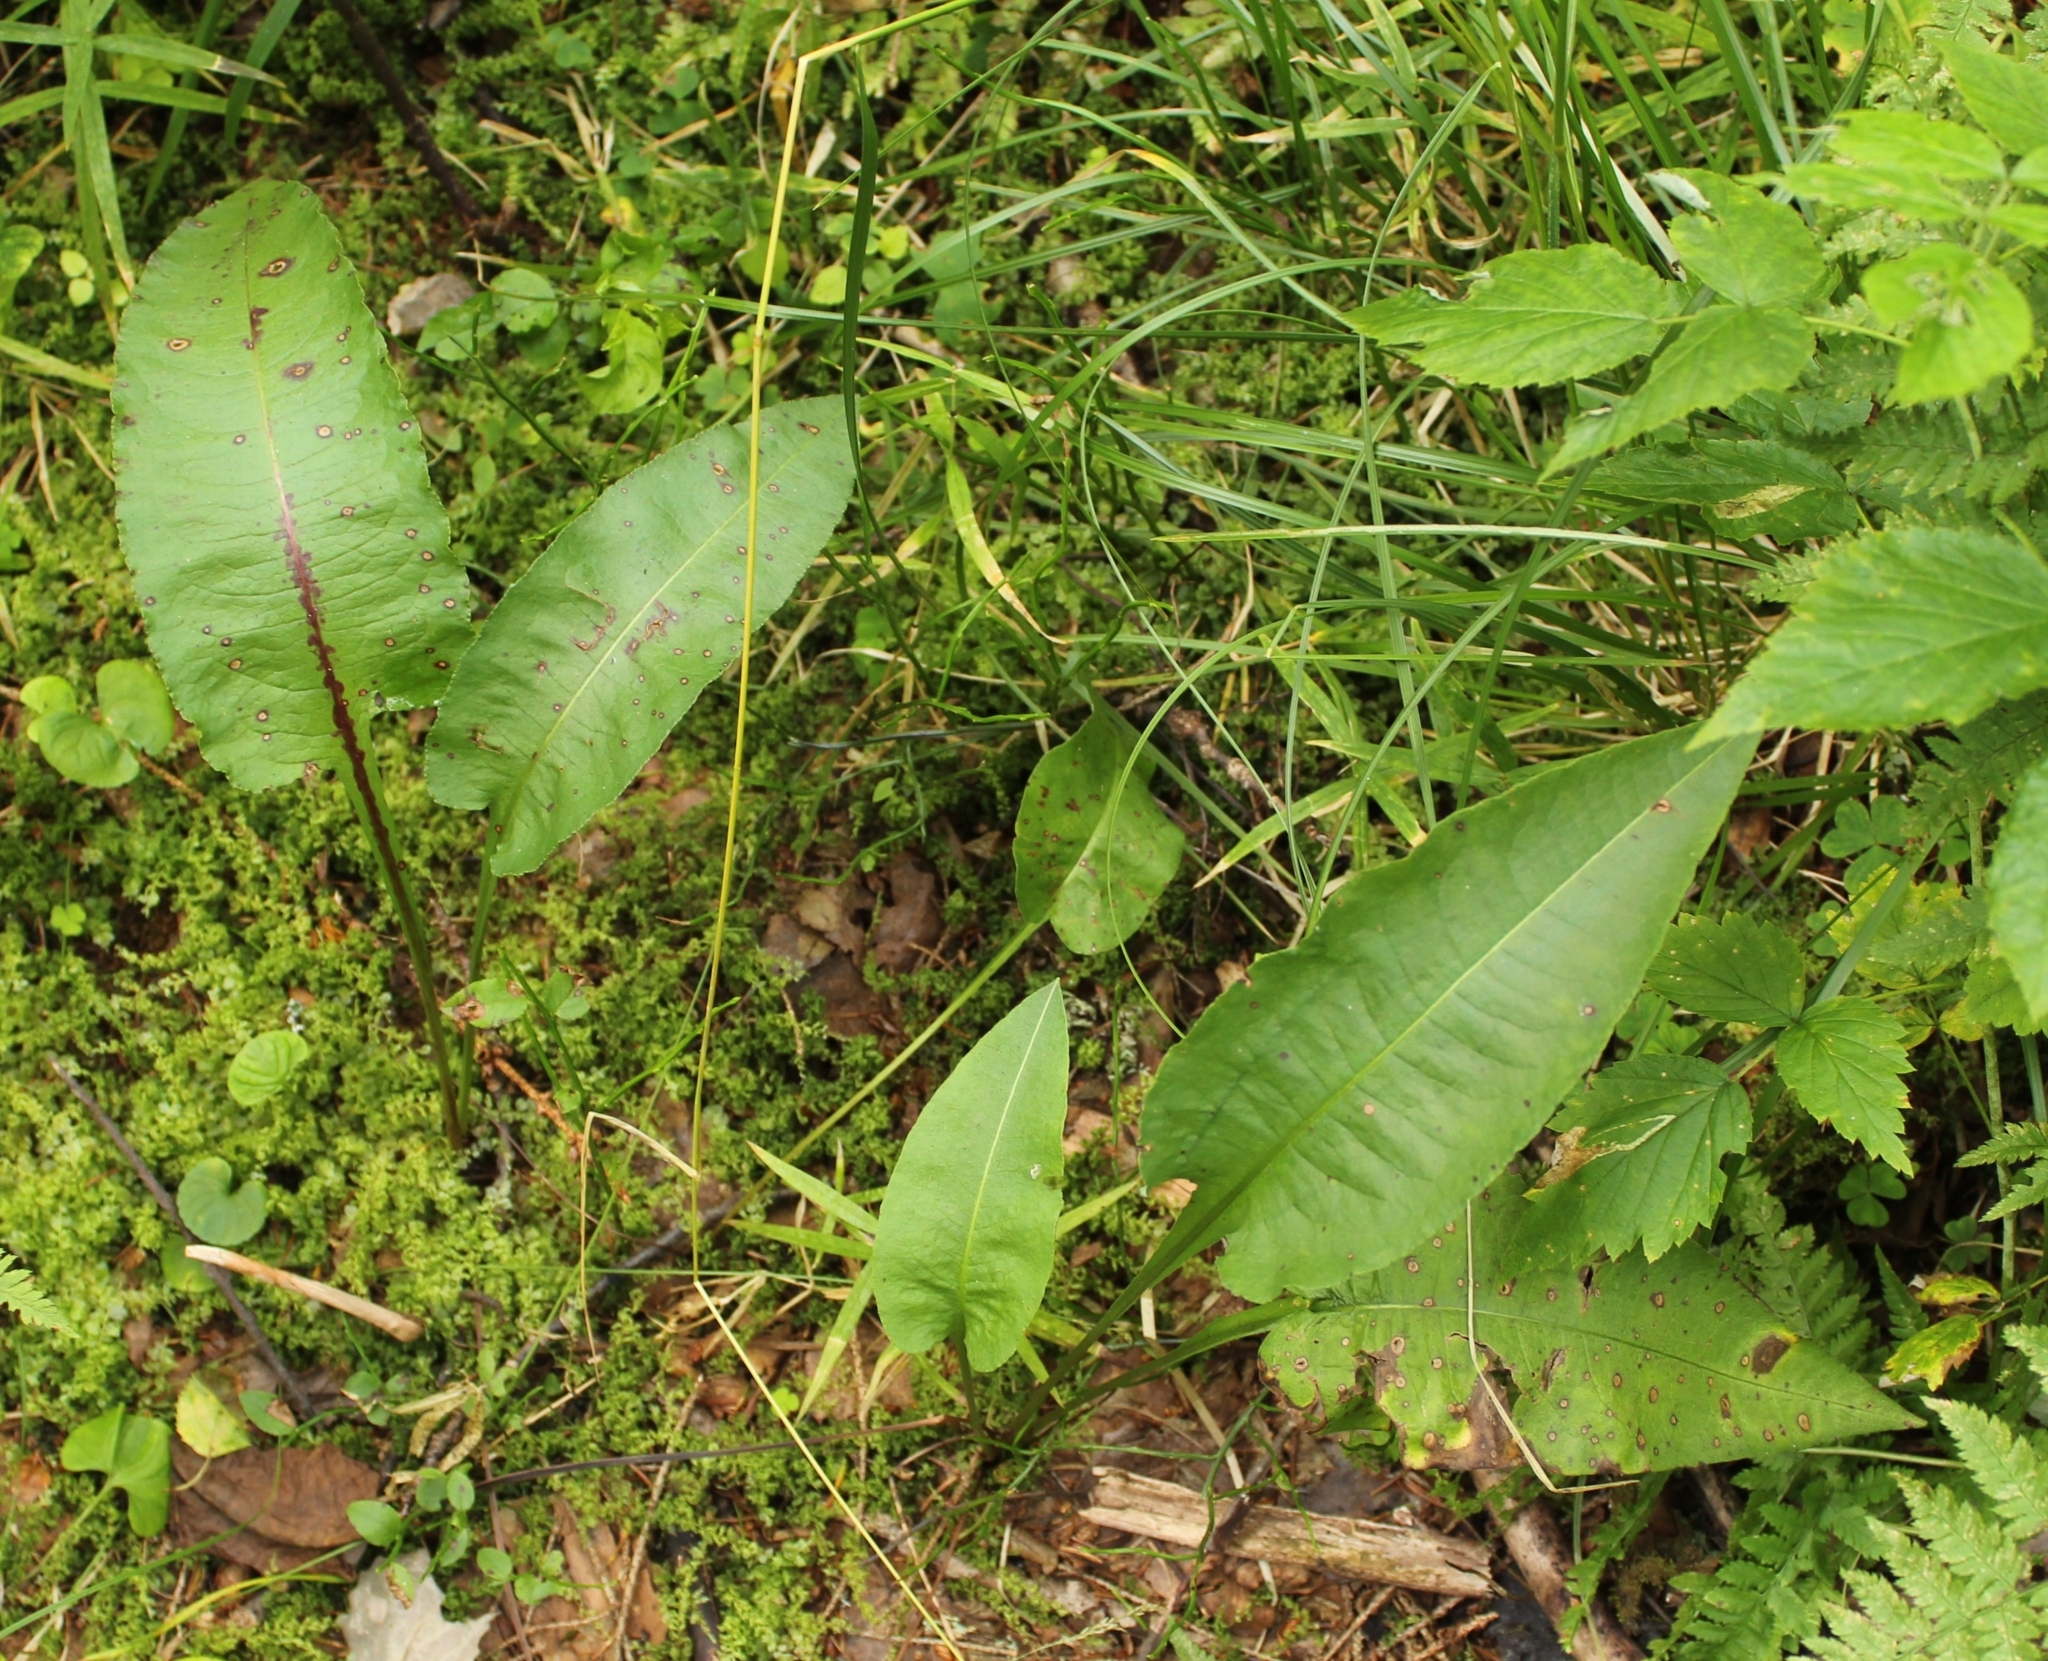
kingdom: Plantae
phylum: Tracheophyta
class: Magnoliopsida
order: Caryophyllales
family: Polygonaceae
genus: Bistorta
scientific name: Bistorta officinalis
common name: Common bistort
